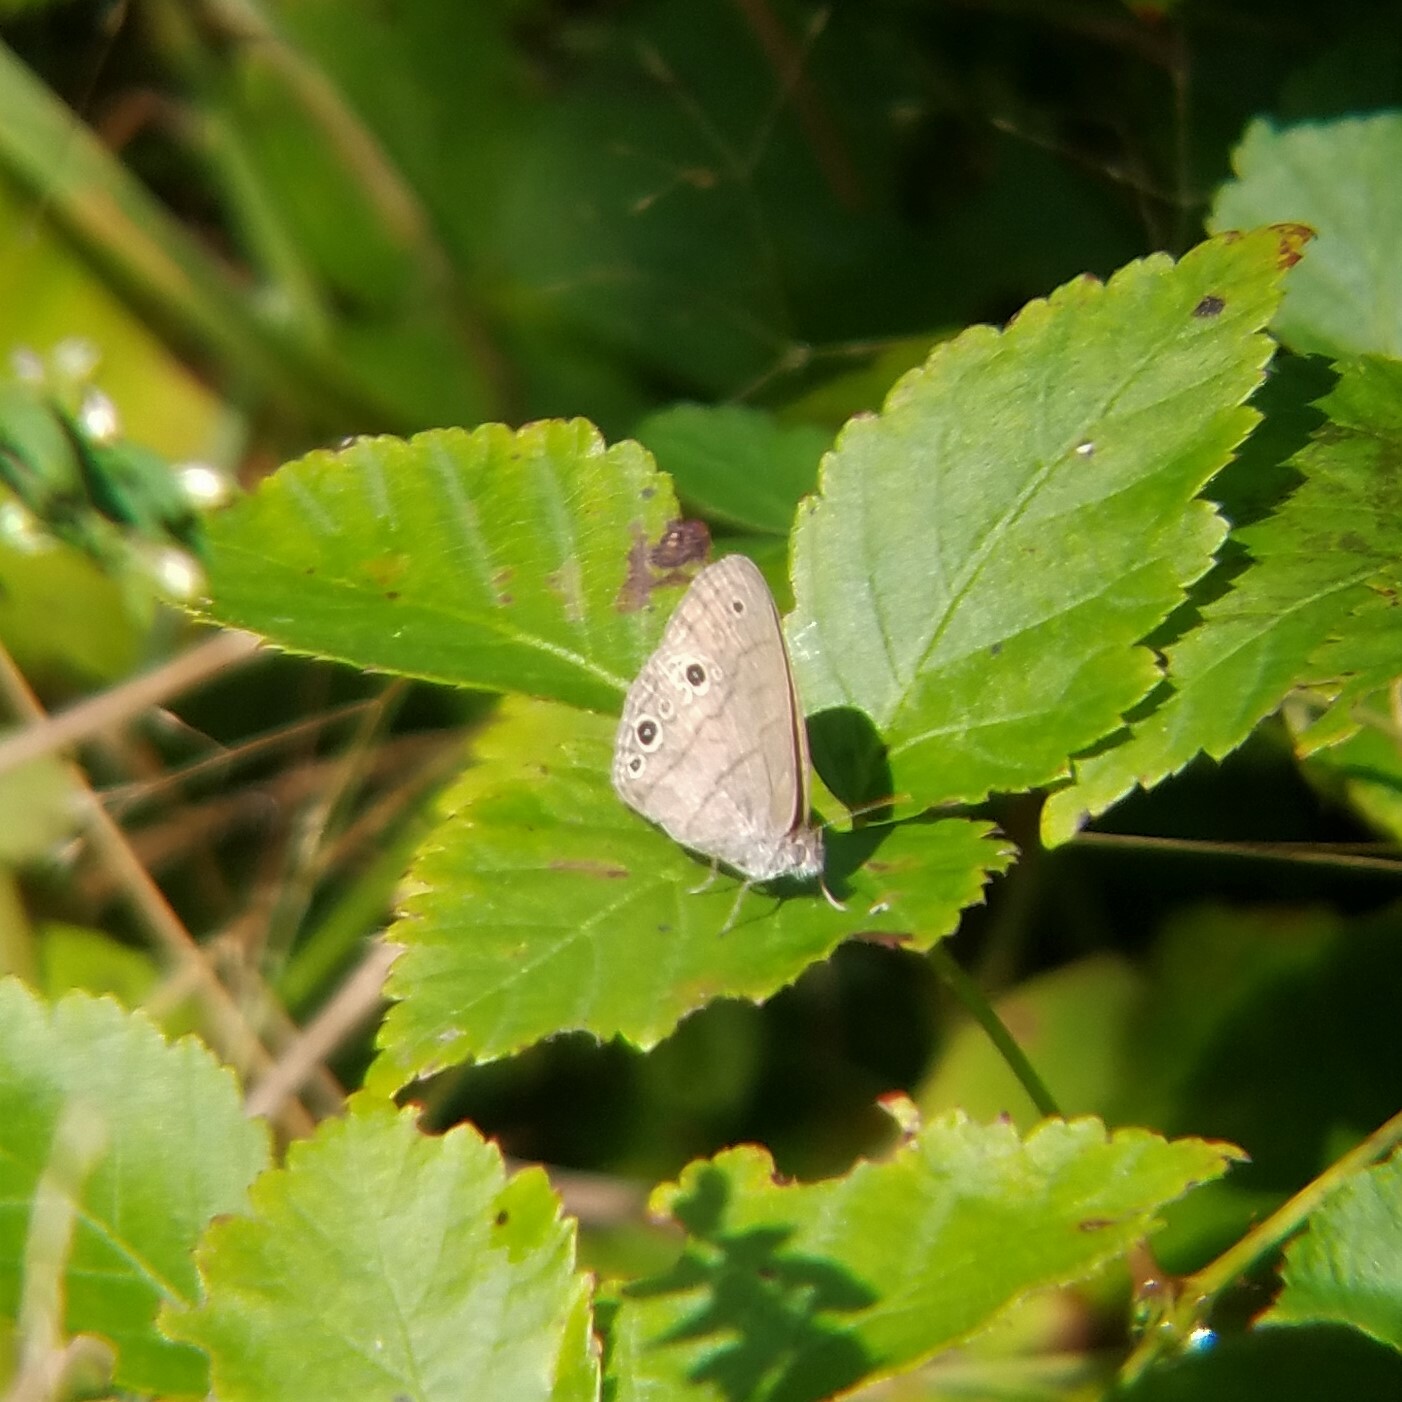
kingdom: Animalia
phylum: Arthropoda
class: Insecta
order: Lepidoptera
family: Nymphalidae
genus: Hermeuptychia
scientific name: Hermeuptychia hermes
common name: Hermes satyr
